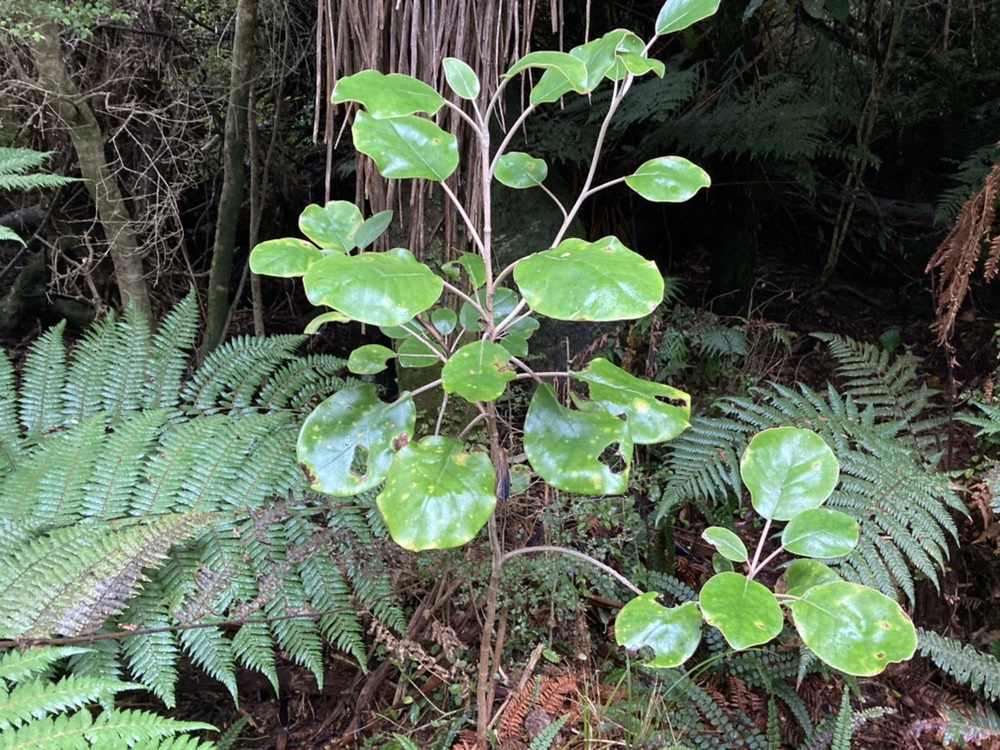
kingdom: Plantae
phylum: Tracheophyta
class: Magnoliopsida
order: Asterales
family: Asteraceae
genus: Brachyglottis
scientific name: Brachyglottis rotundifolia
